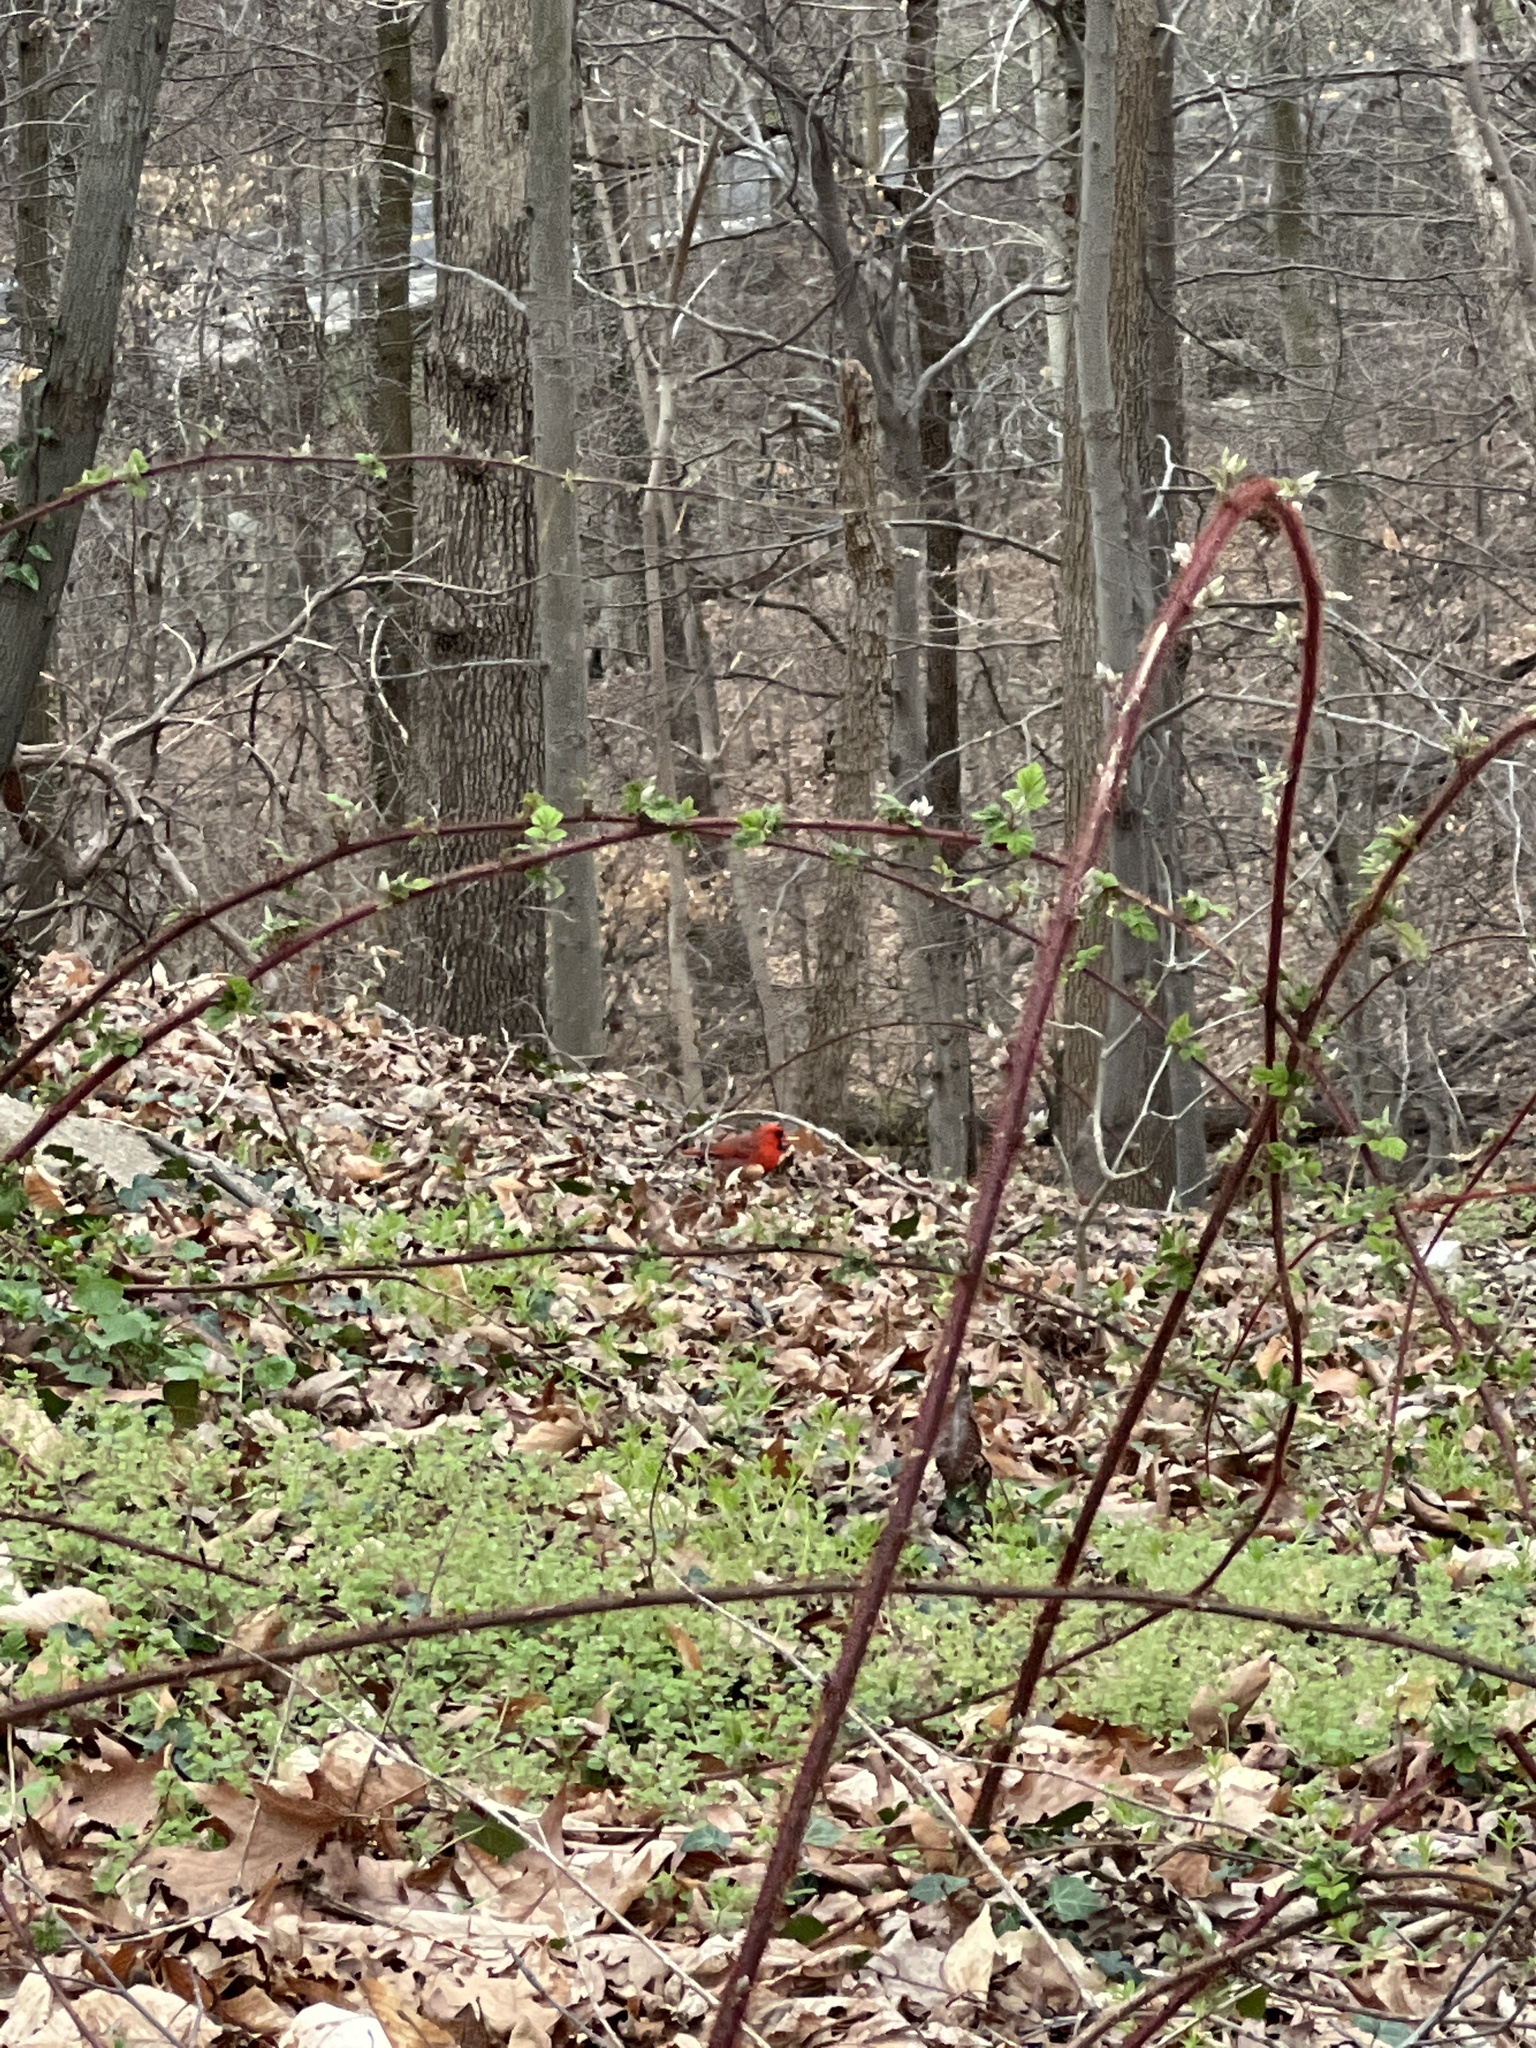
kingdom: Animalia
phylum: Chordata
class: Aves
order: Passeriformes
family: Cardinalidae
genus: Cardinalis
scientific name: Cardinalis cardinalis
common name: Northern cardinal
